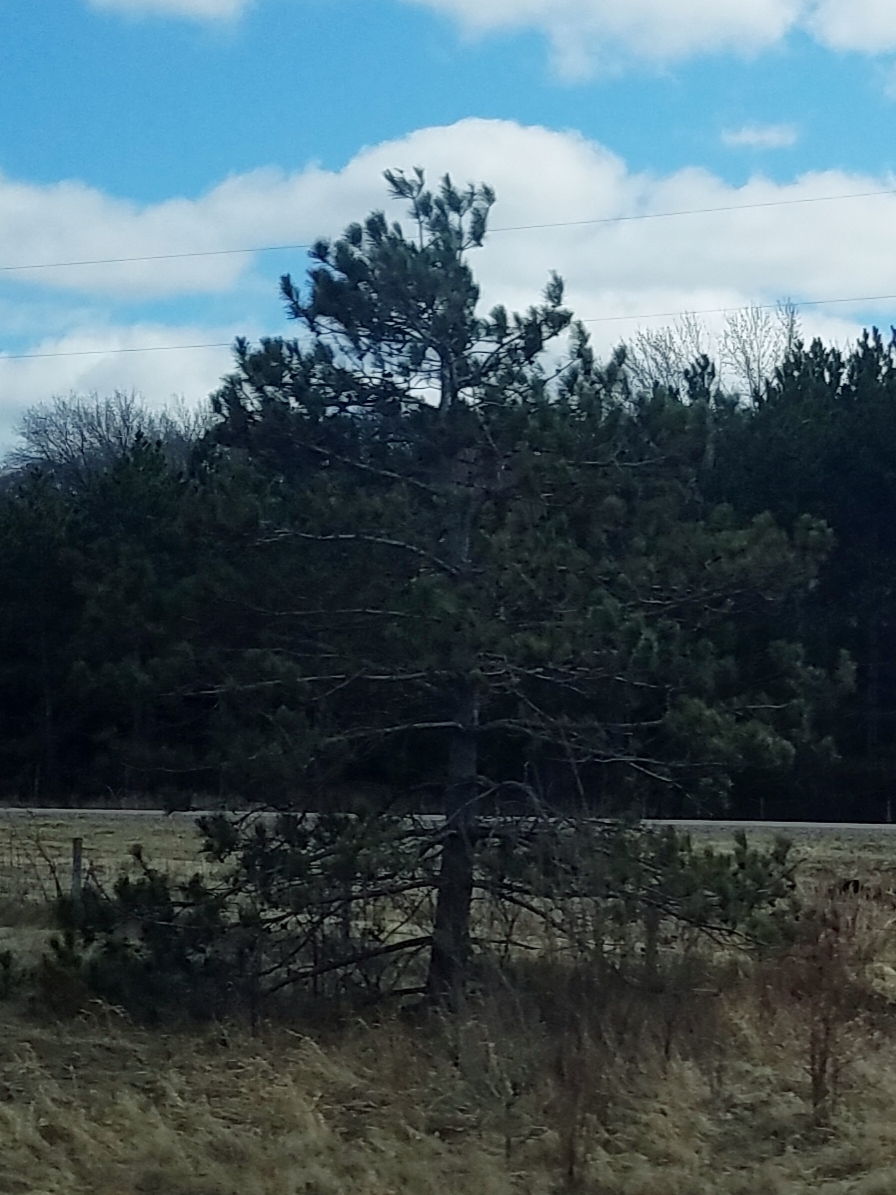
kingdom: Plantae
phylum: Tracheophyta
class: Pinopsida
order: Pinales
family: Pinaceae
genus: Pinus
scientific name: Pinus resinosa
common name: Norway pine
